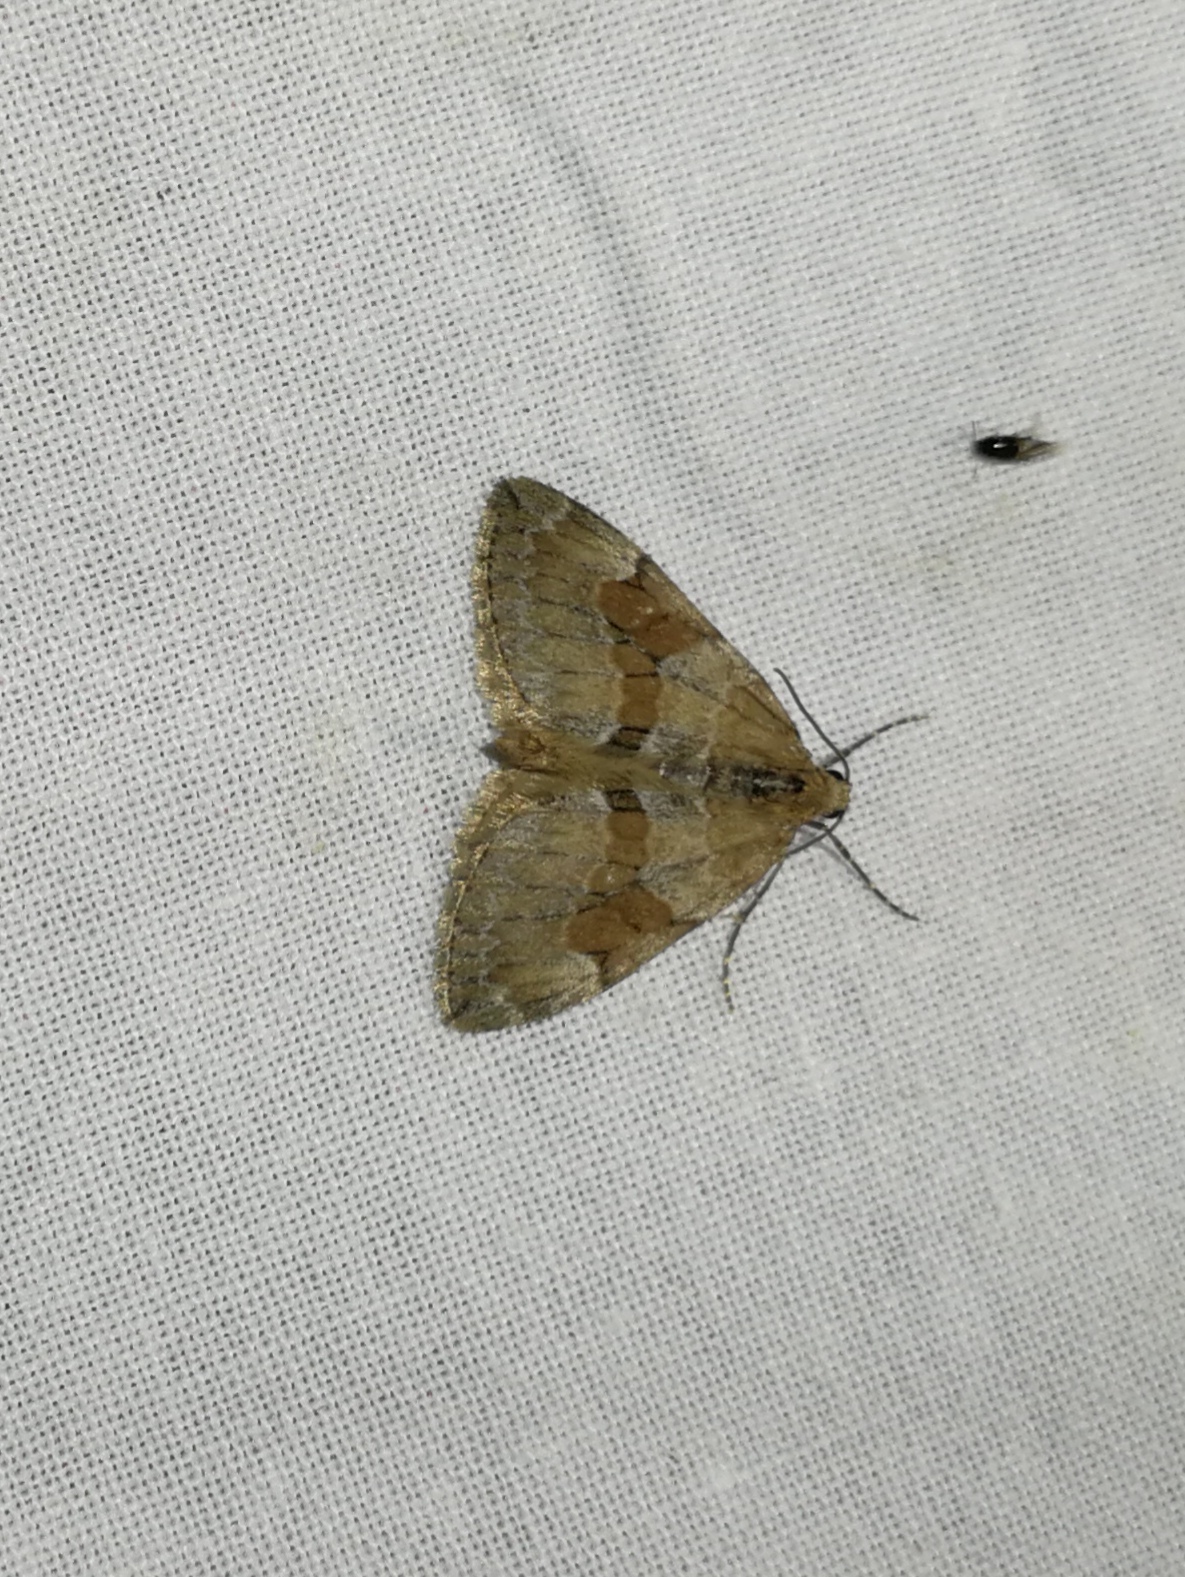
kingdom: Animalia
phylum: Arthropoda
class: Insecta
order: Lepidoptera
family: Geometridae
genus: Thera
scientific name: Thera obeliscata
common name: Grey pine carpet
